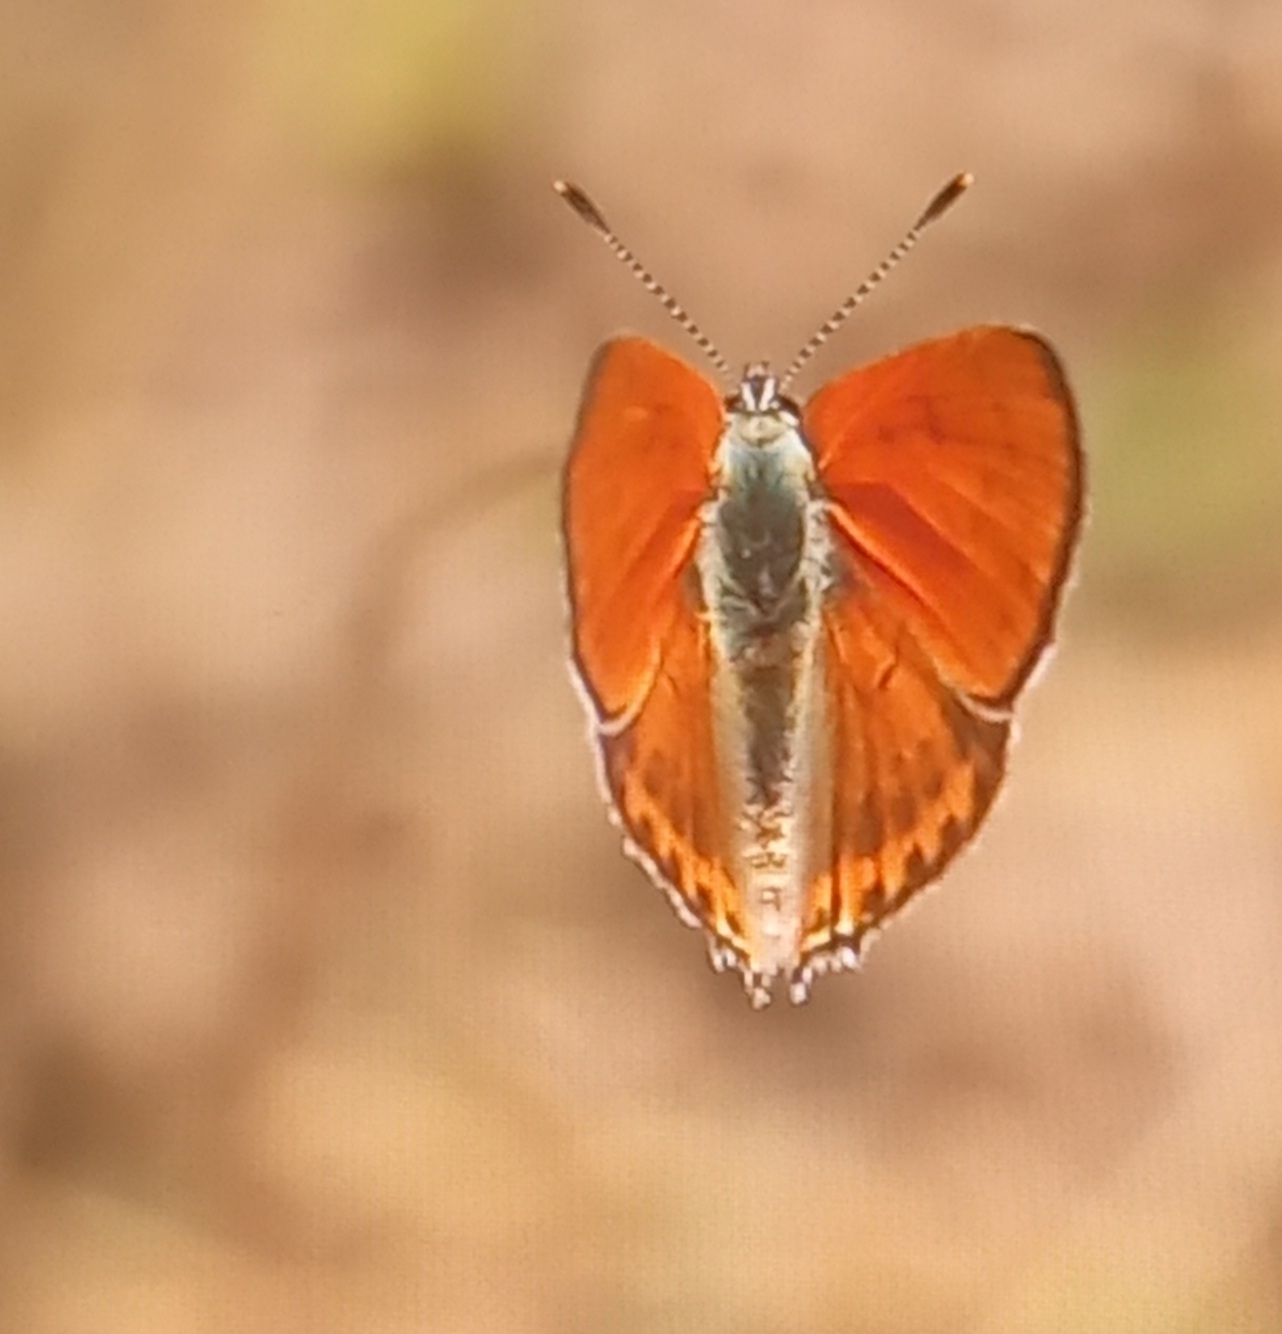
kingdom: Animalia
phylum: Arthropoda
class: Insecta
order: Lepidoptera
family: Lycaenidae
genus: Thersamonia
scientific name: Thersamonia thersamon
